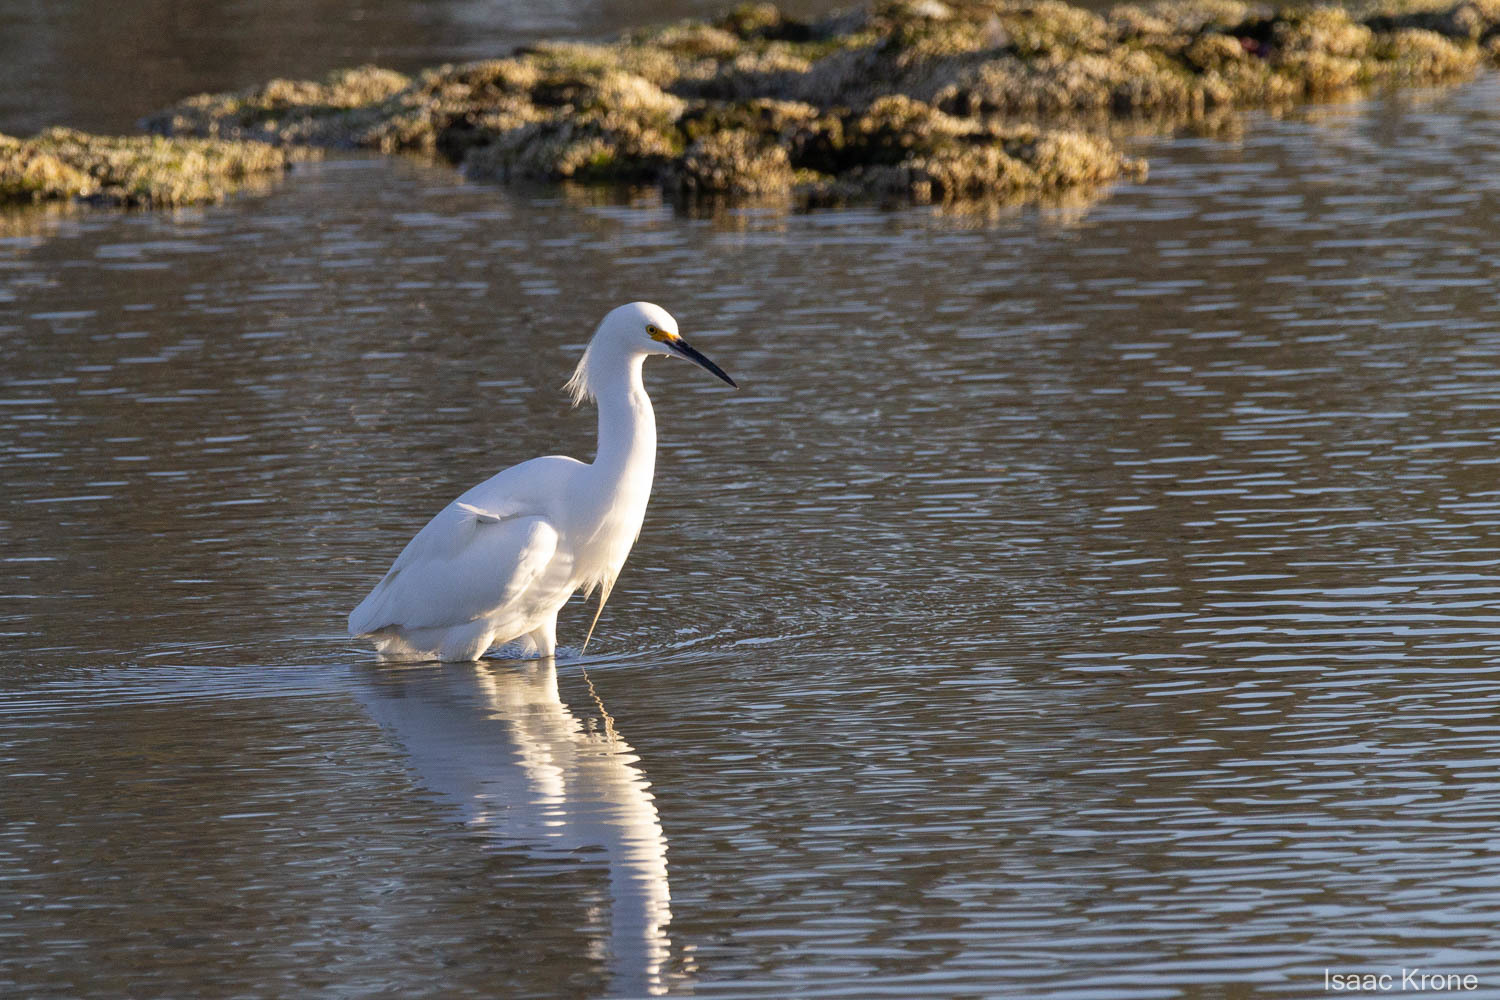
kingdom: Animalia
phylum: Chordata
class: Aves
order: Pelecaniformes
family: Ardeidae
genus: Egretta
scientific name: Egretta thula
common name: Snowy egret
